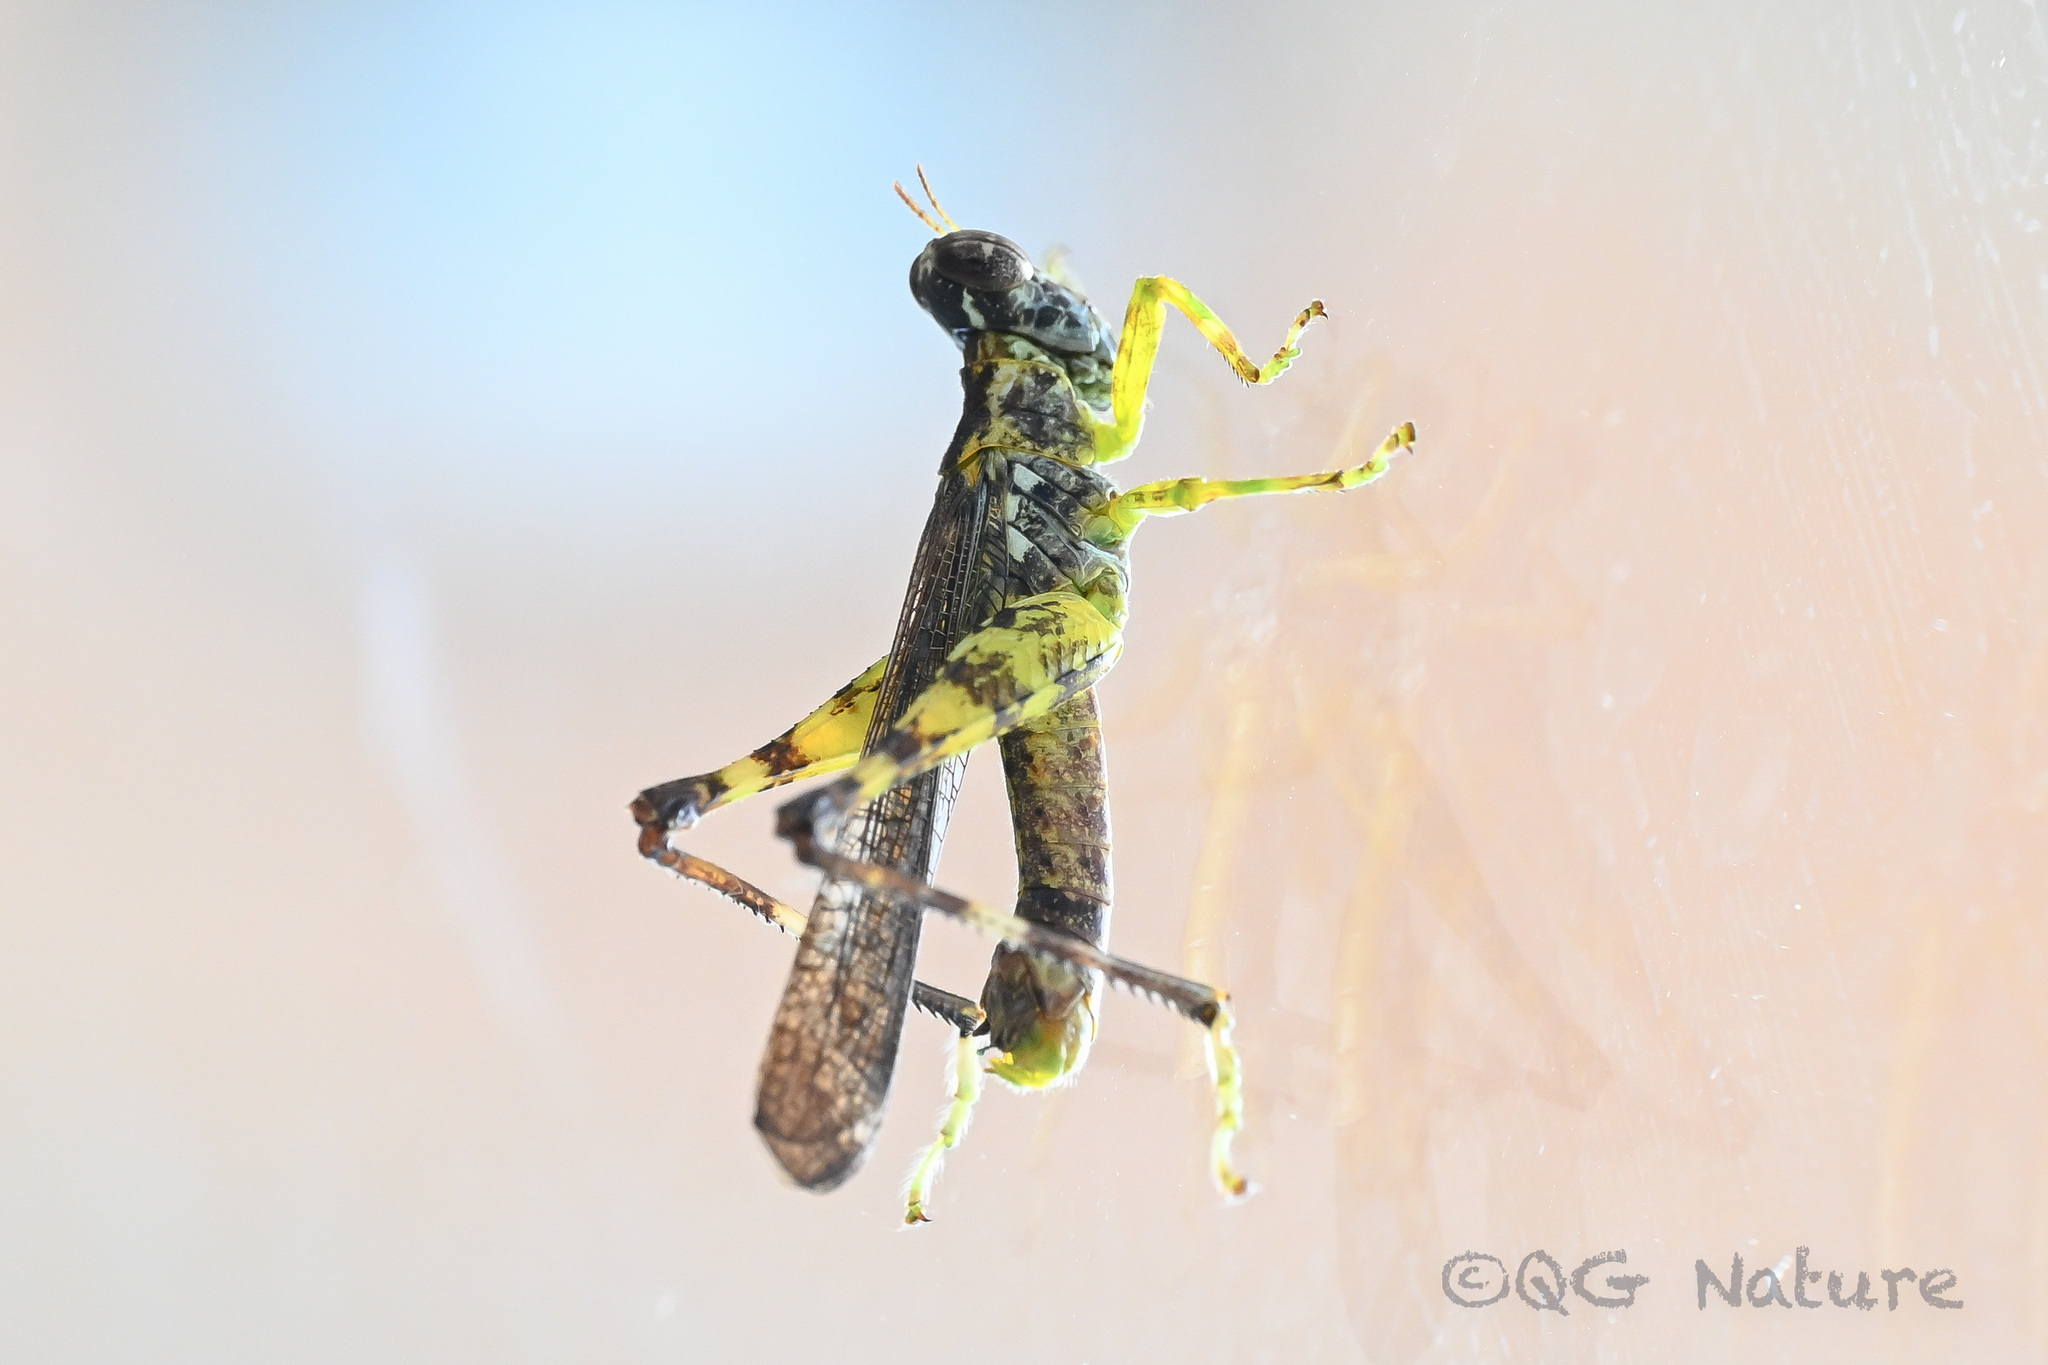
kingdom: Animalia
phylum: Arthropoda
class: Insecta
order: Orthoptera
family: Chorotypidae
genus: China
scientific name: China mantispoides
